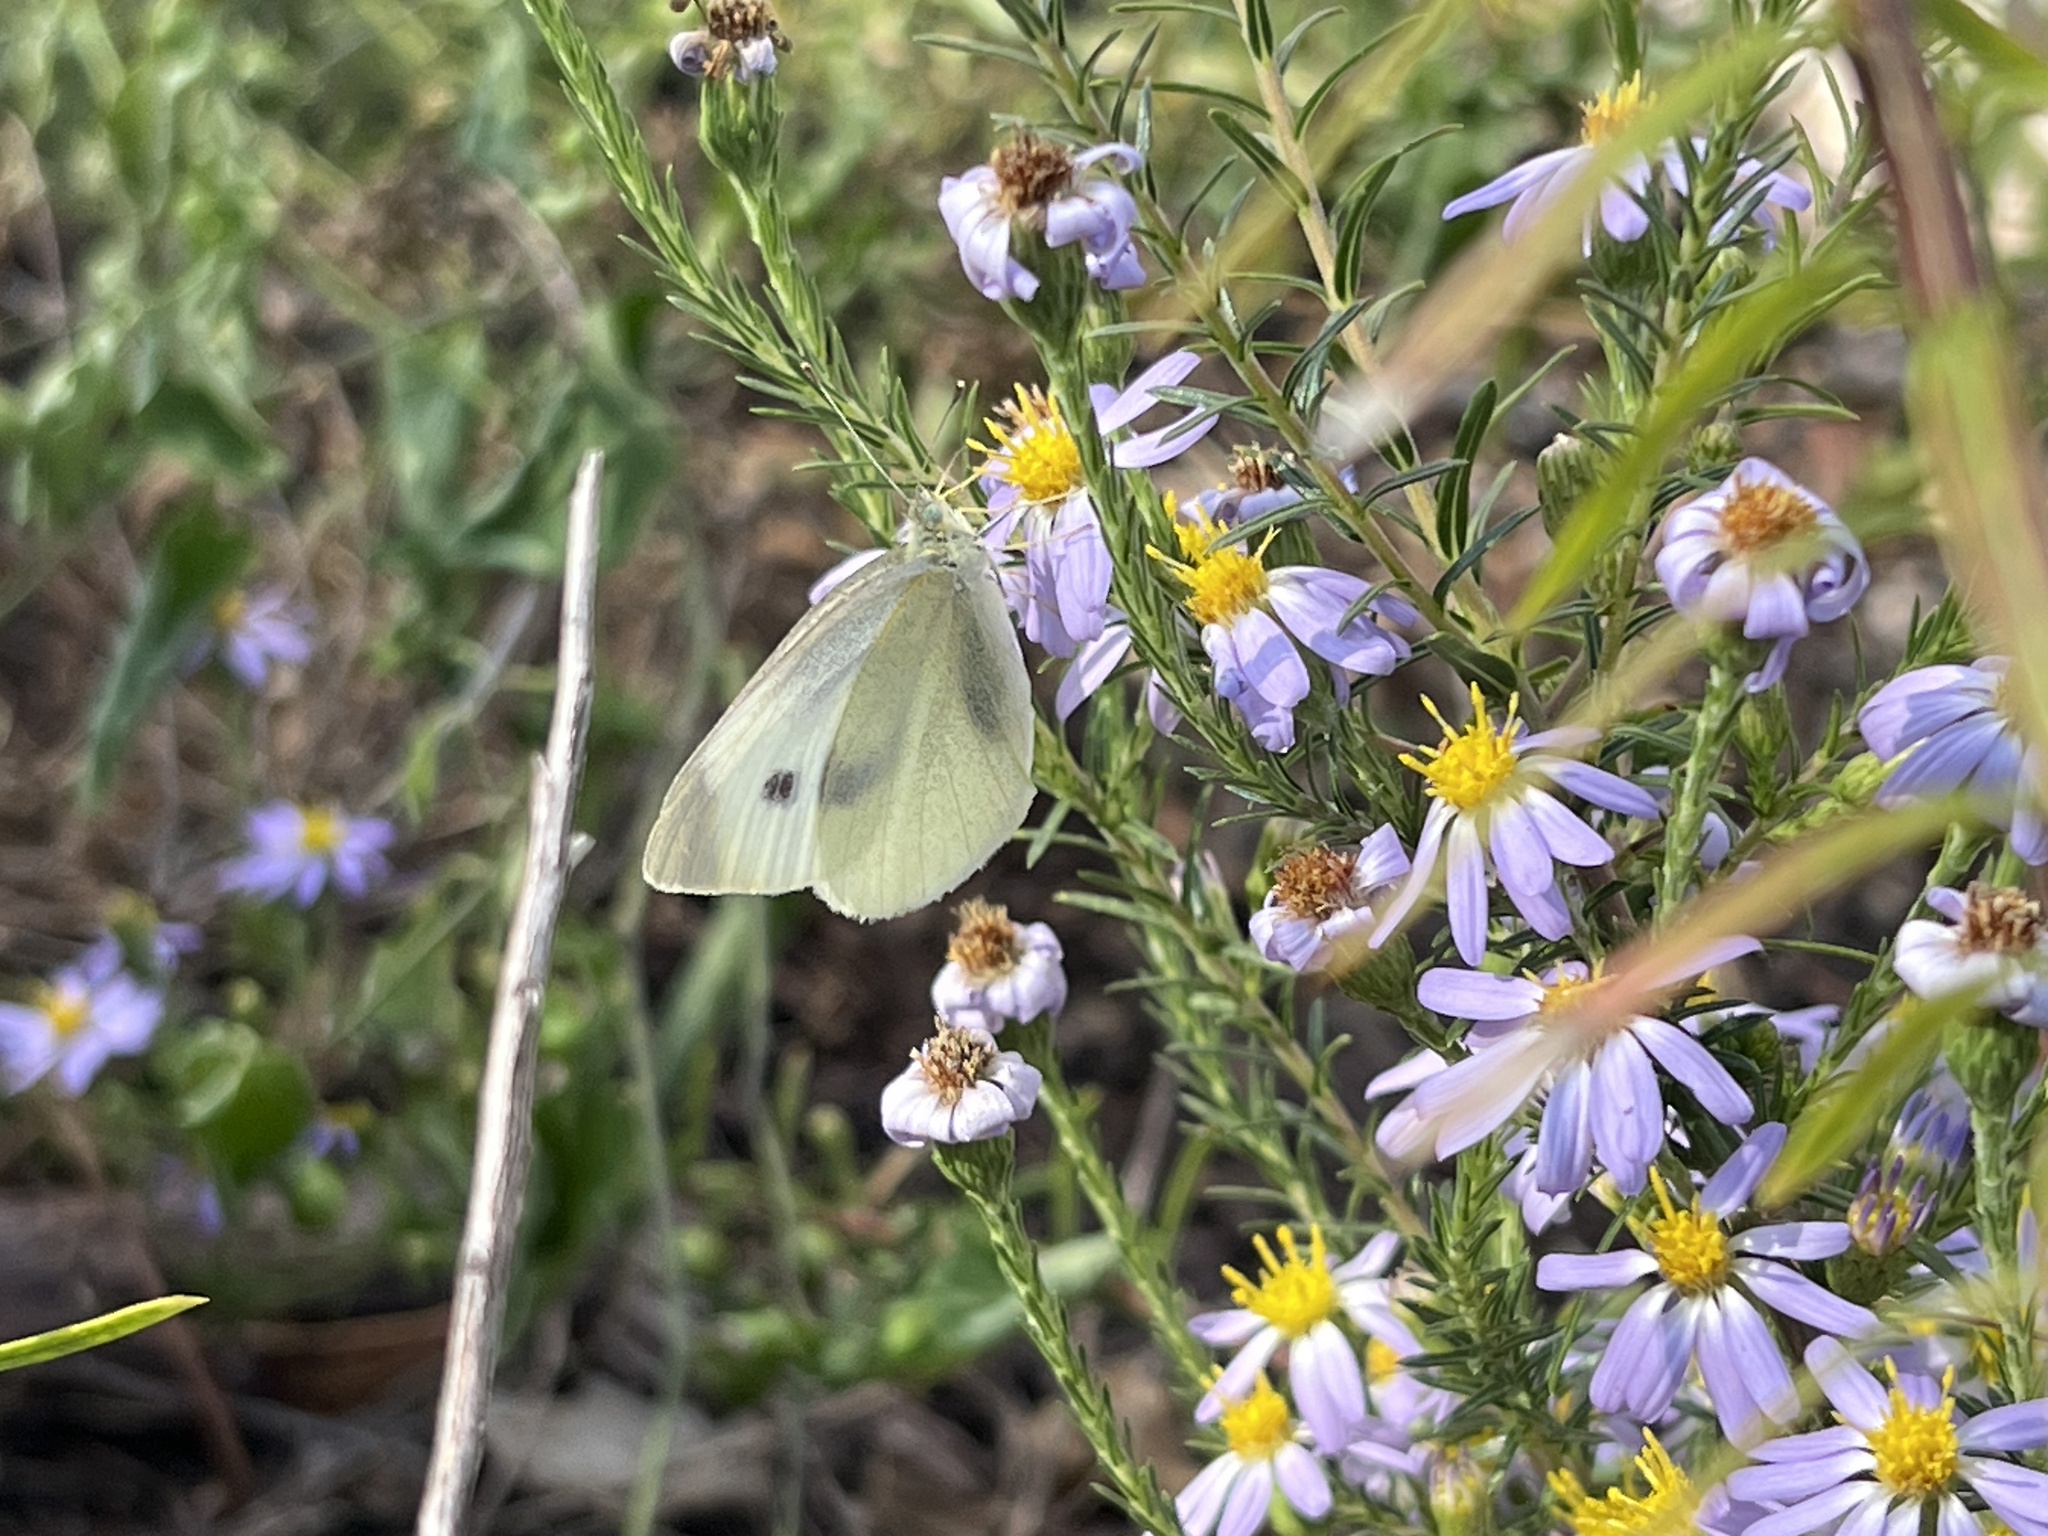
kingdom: Animalia
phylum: Arthropoda
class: Insecta
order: Lepidoptera
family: Pieridae
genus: Pieris
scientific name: Pieris rapae
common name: Small white
